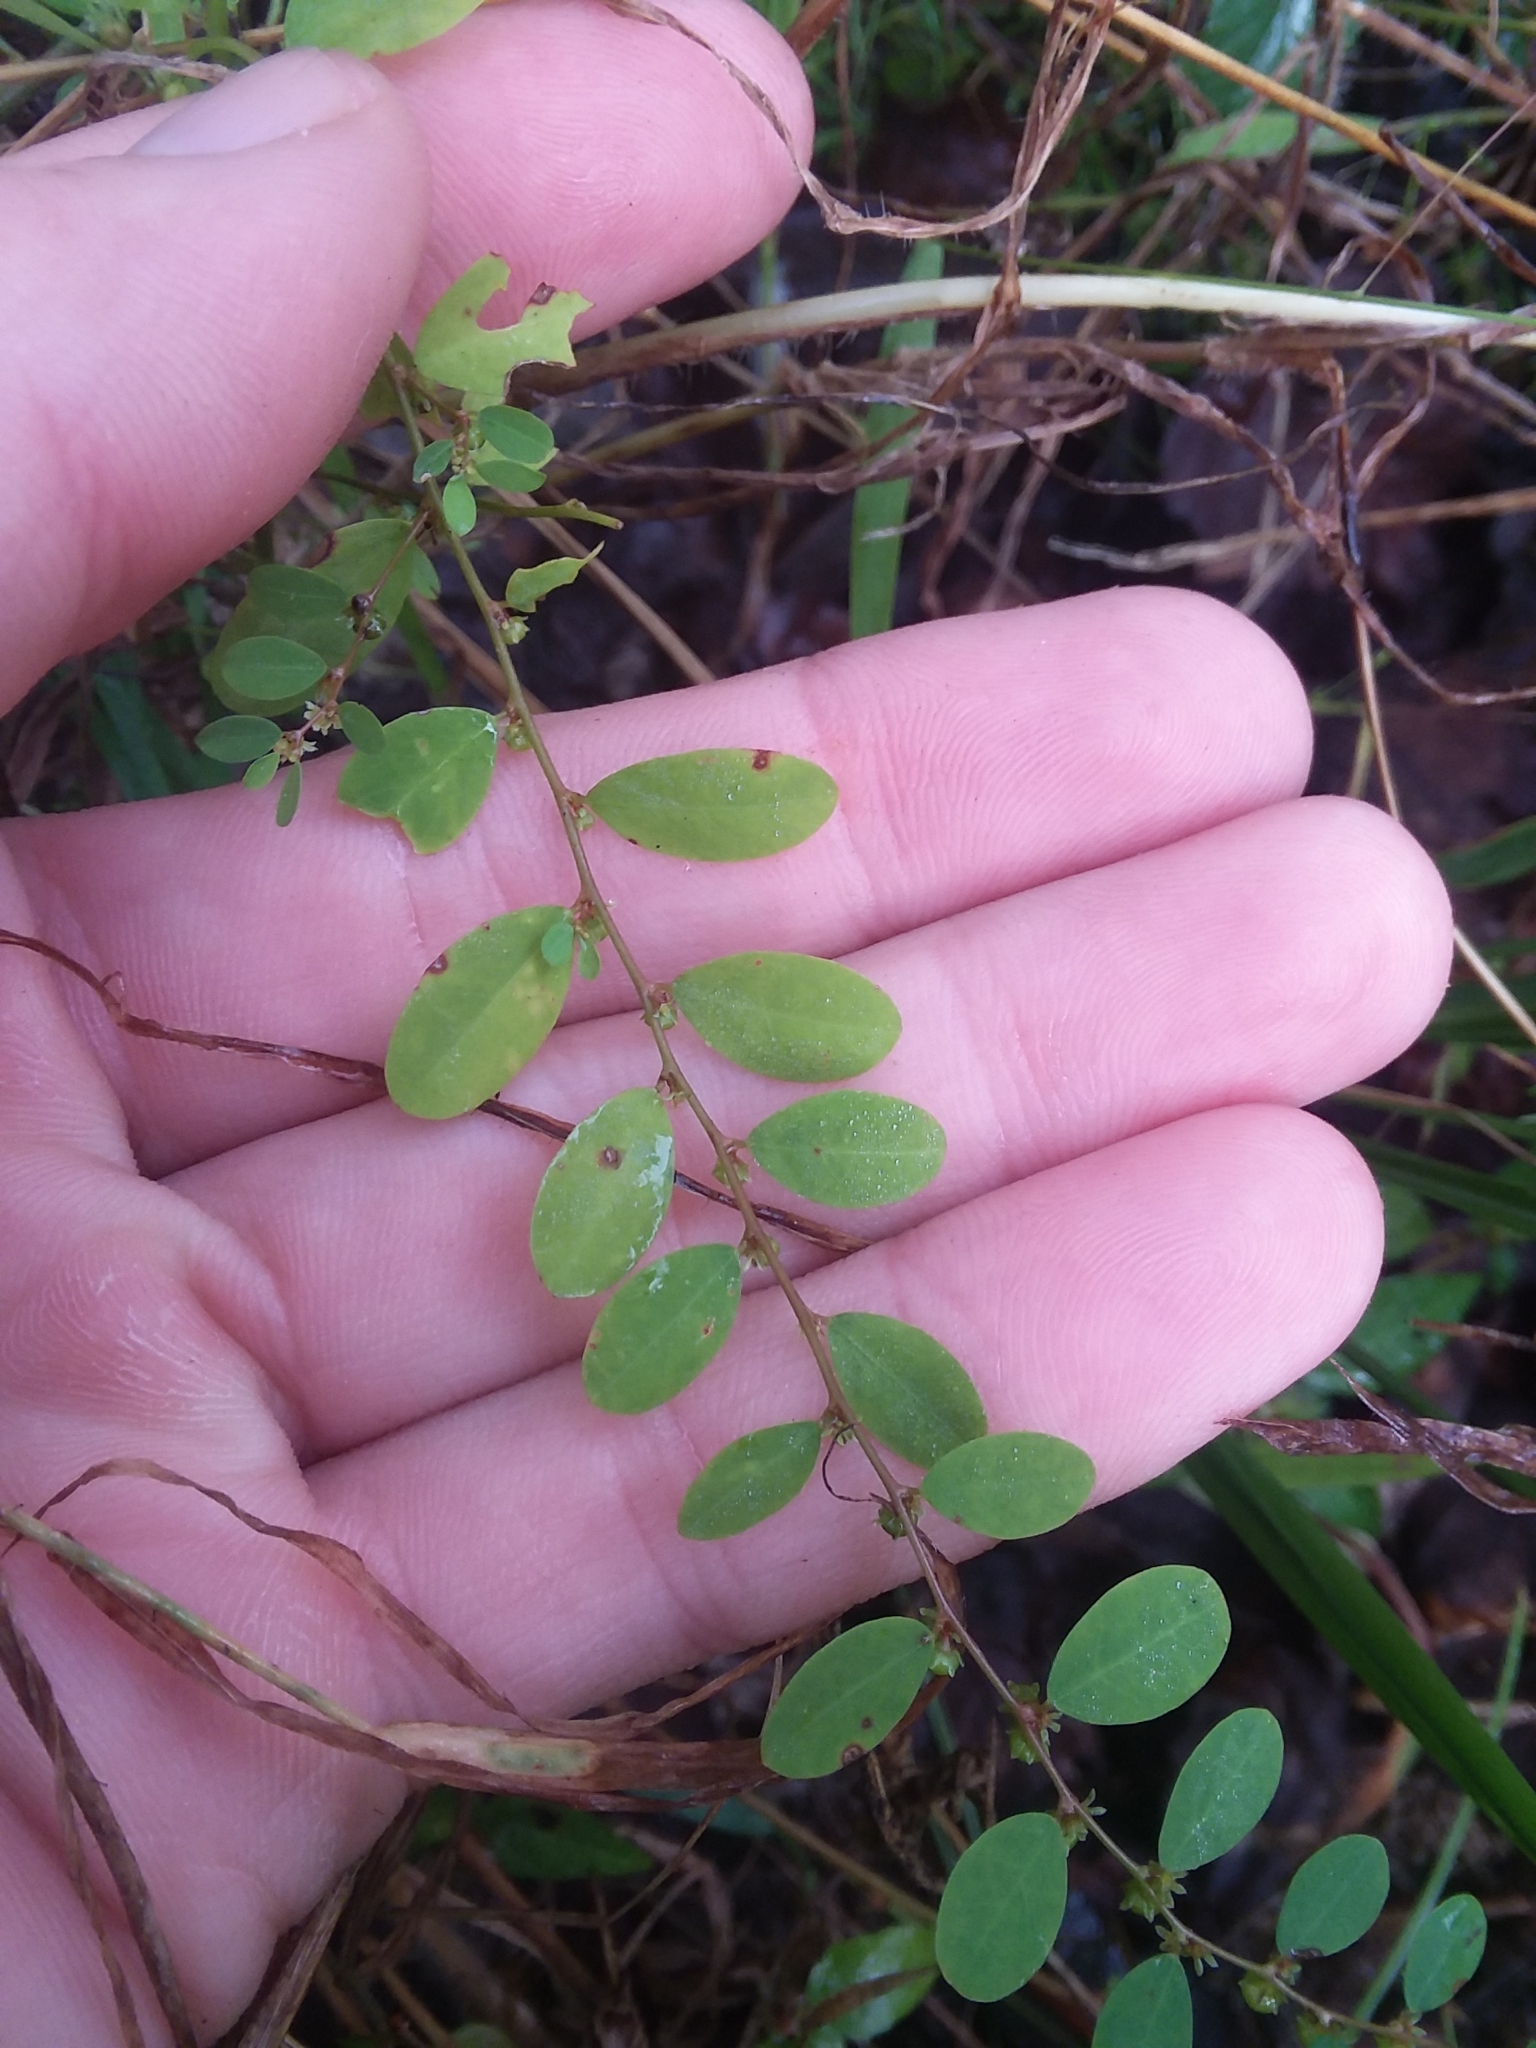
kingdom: Plantae
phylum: Tracheophyta
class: Magnoliopsida
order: Malpighiales
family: Phyllanthaceae
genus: Phyllanthus
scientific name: Phyllanthus caroliniensis
